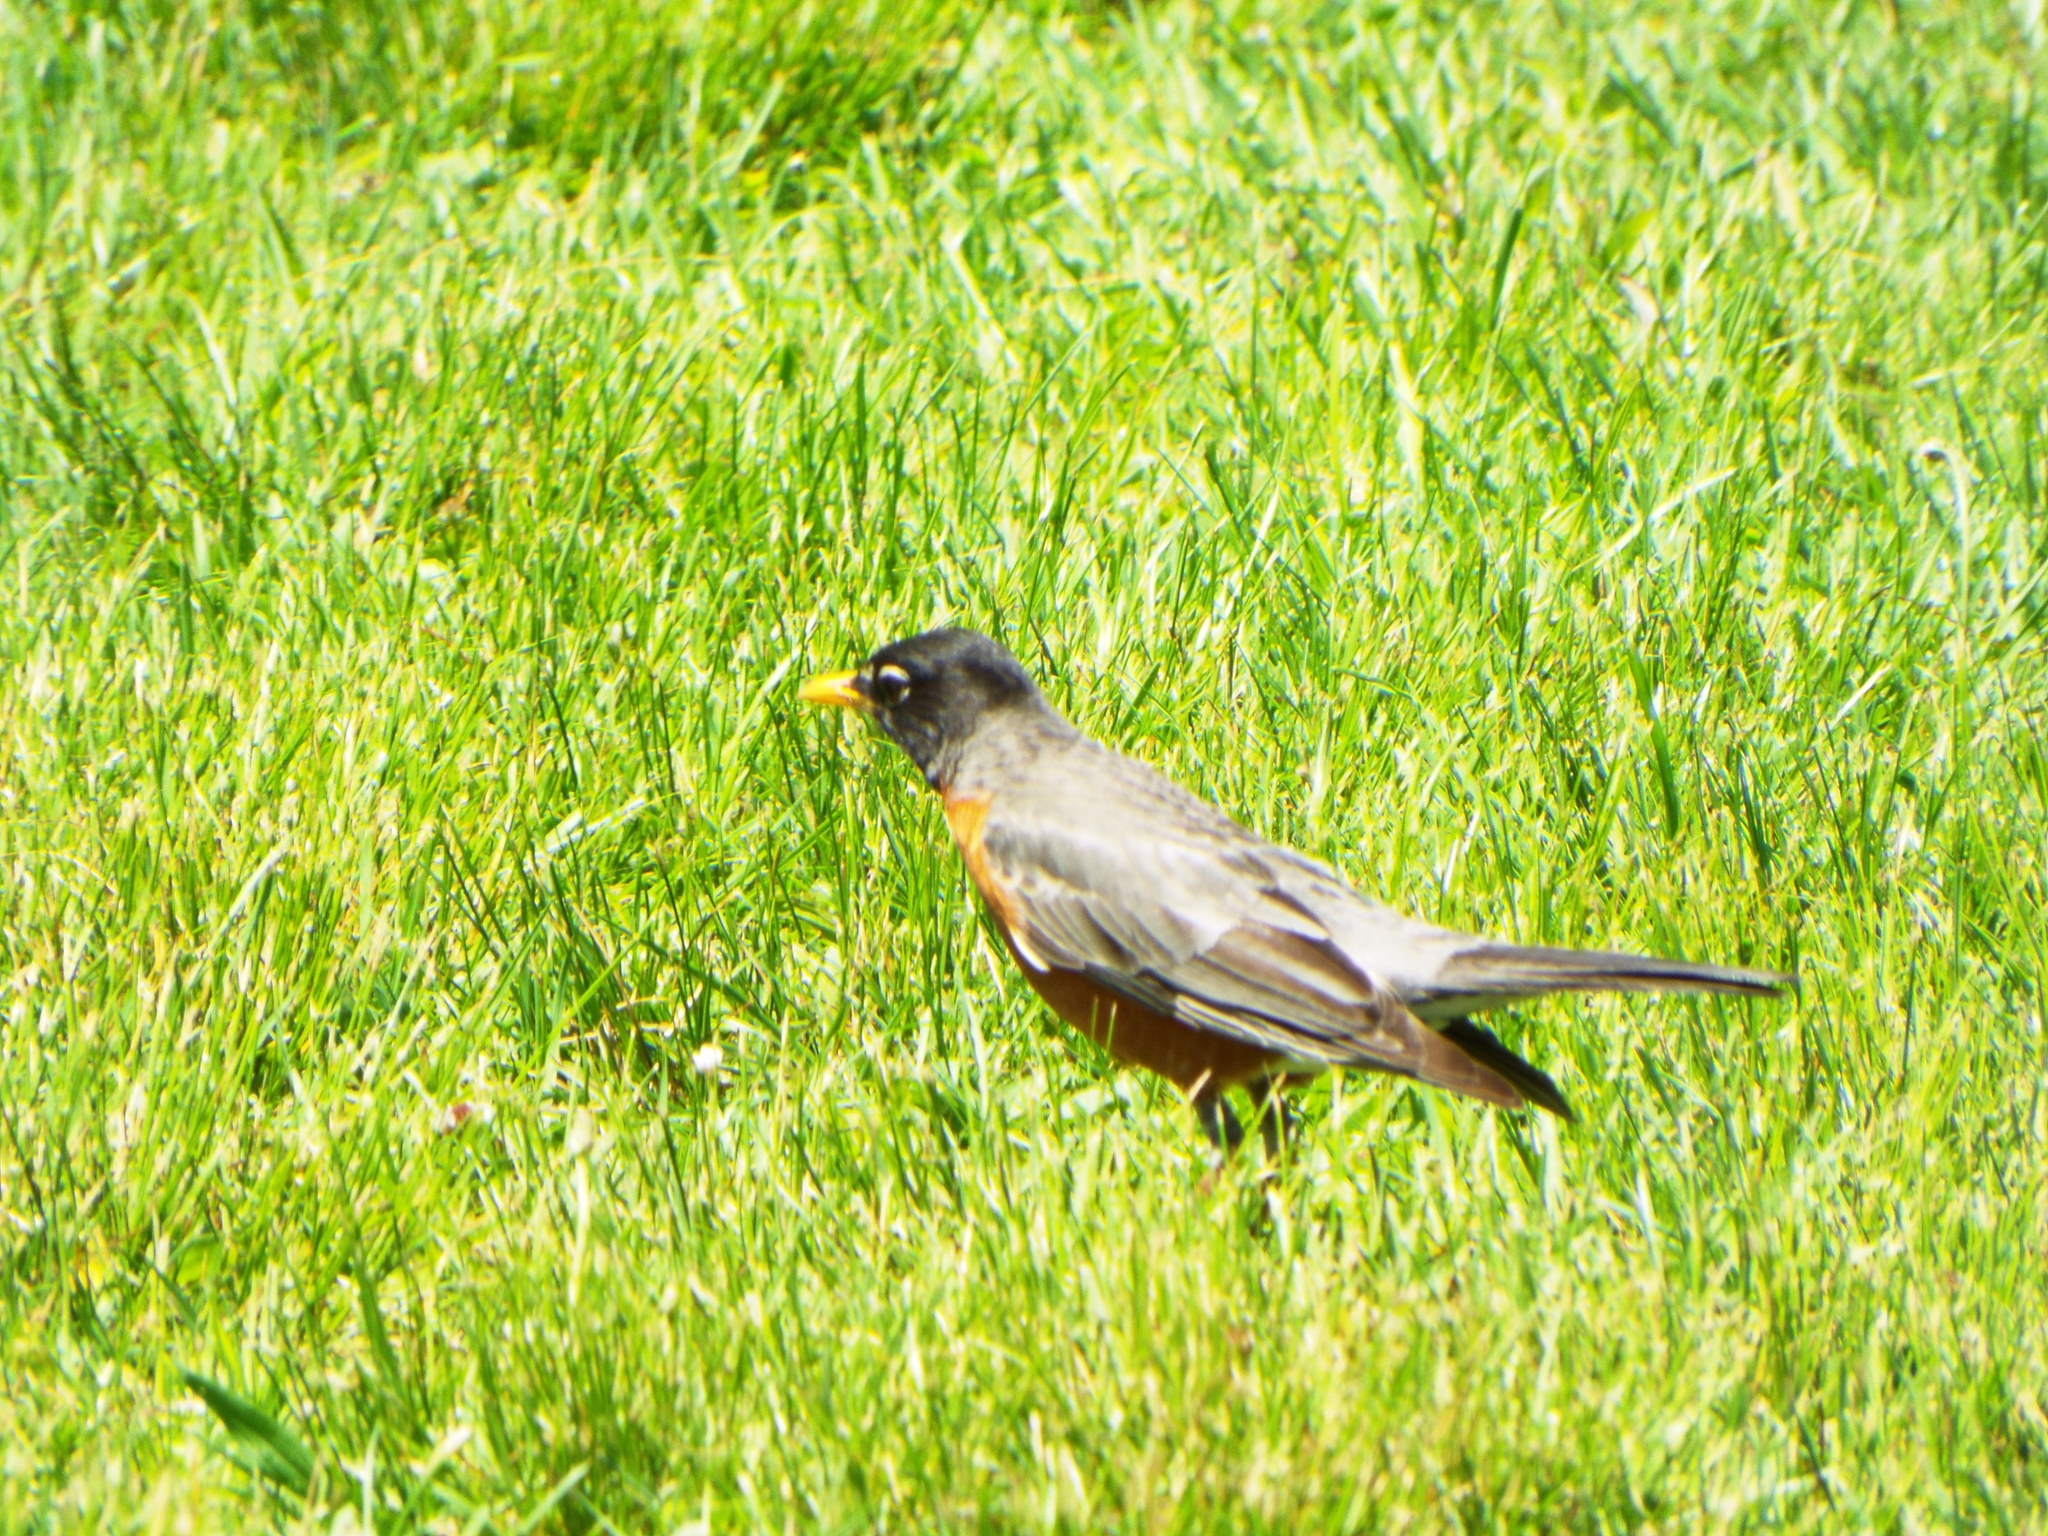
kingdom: Animalia
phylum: Chordata
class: Aves
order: Passeriformes
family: Turdidae
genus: Turdus
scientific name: Turdus migratorius
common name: American robin
